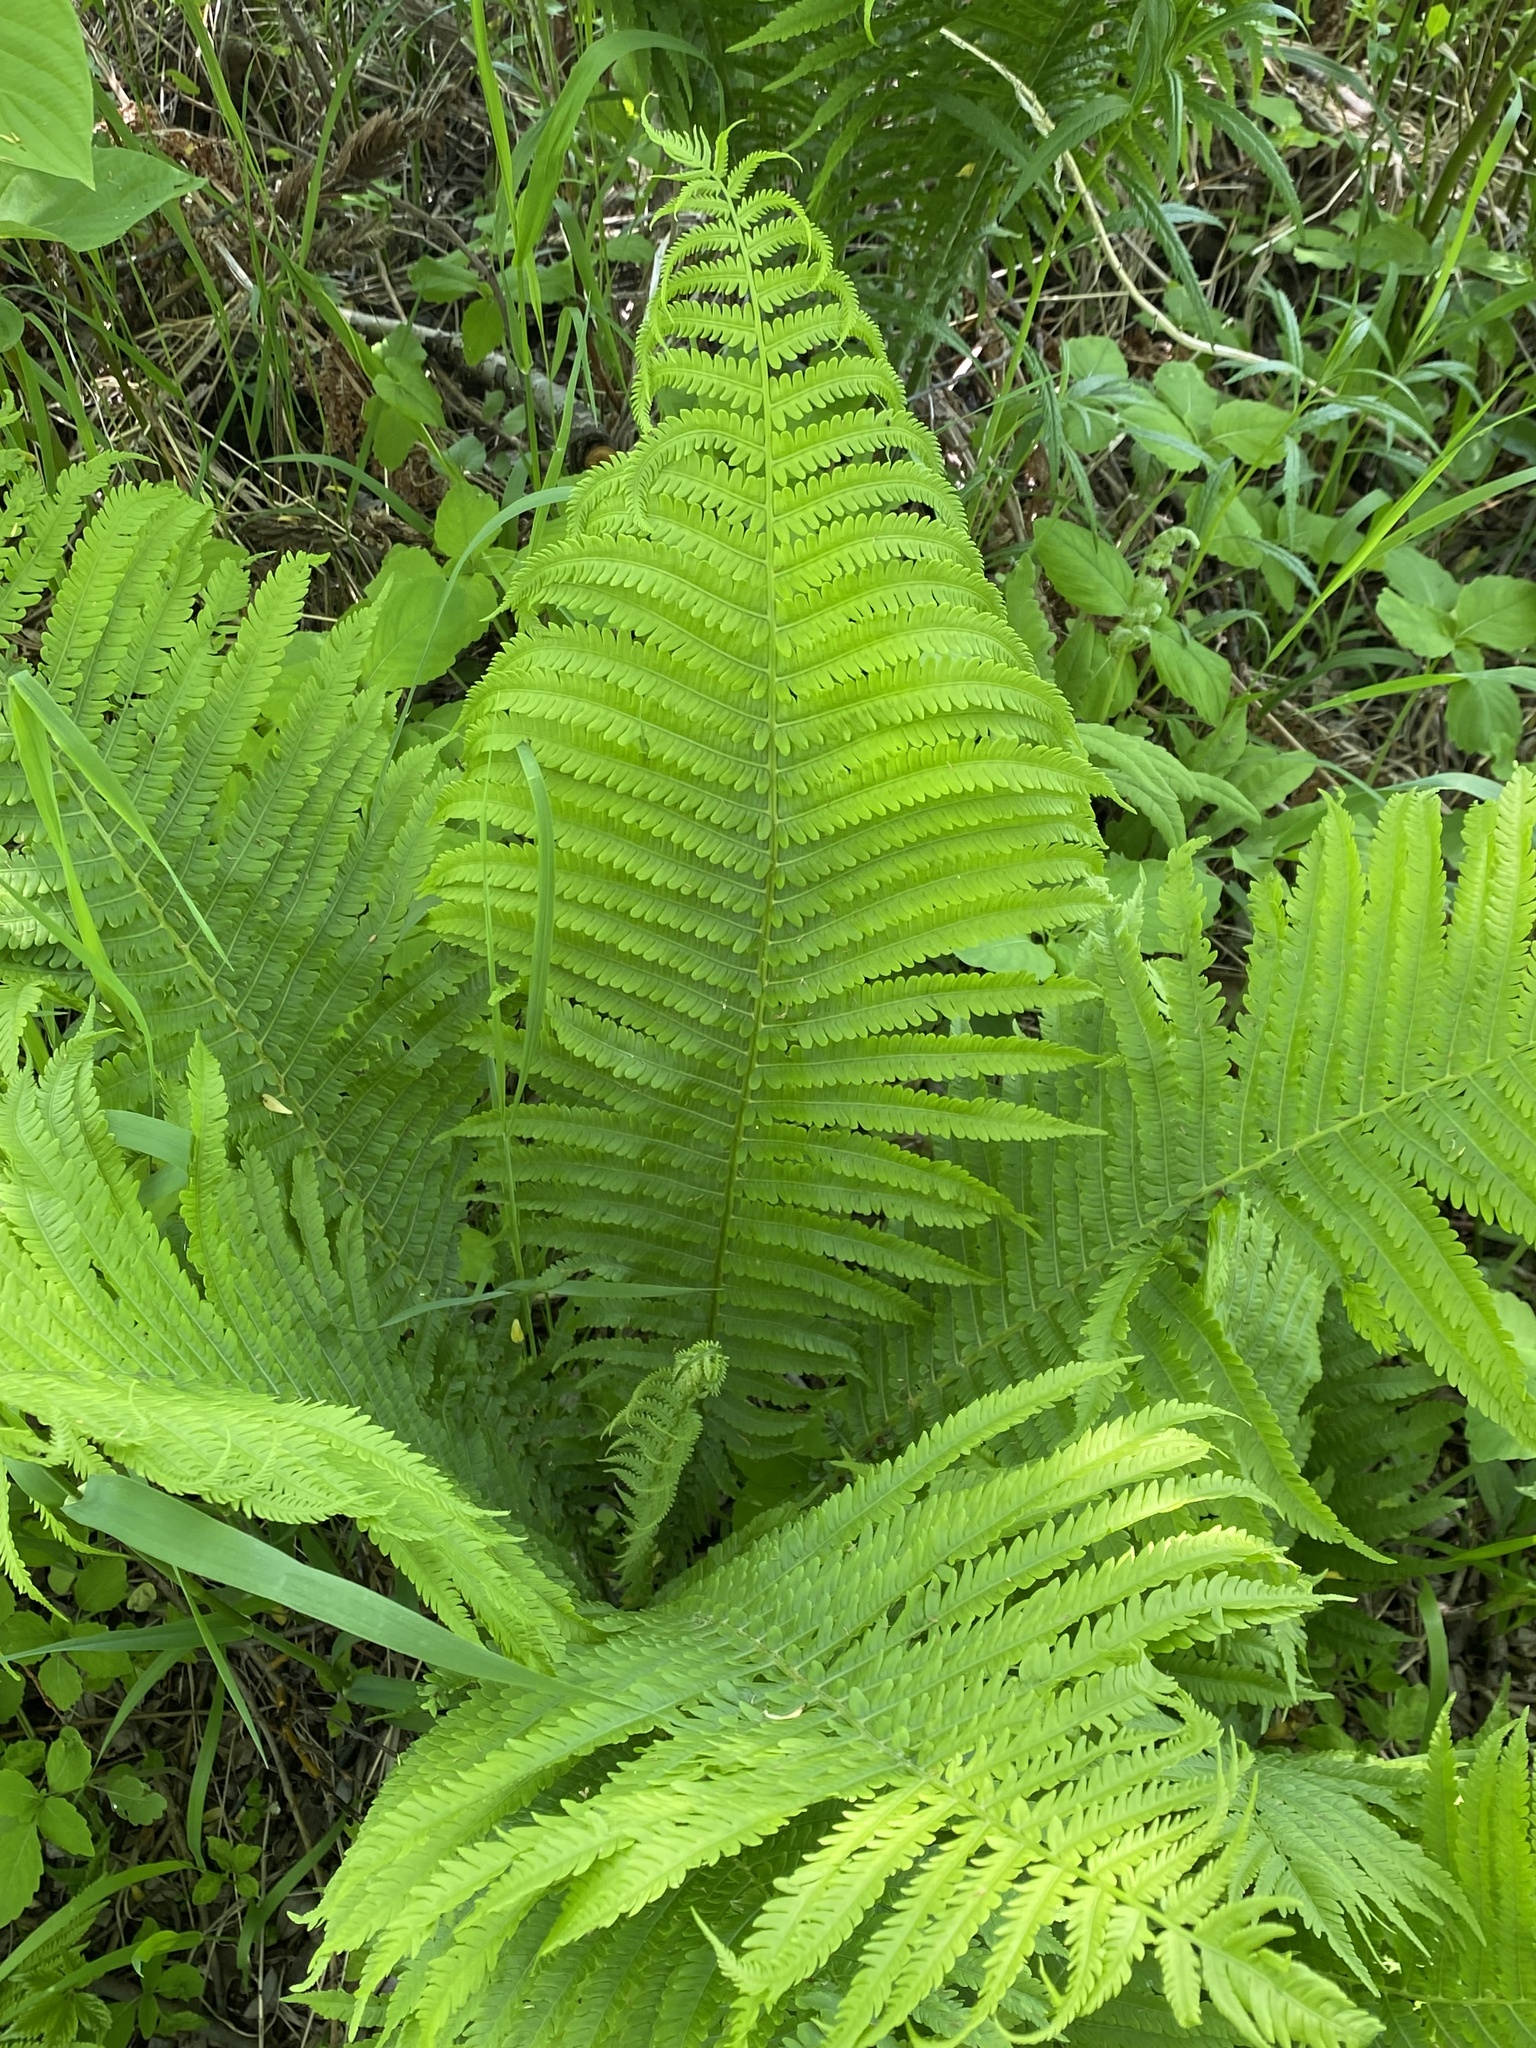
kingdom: Plantae
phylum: Tracheophyta
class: Polypodiopsida
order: Polypodiales
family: Onocleaceae
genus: Matteuccia
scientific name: Matteuccia struthiopteris
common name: Ostrich fern
